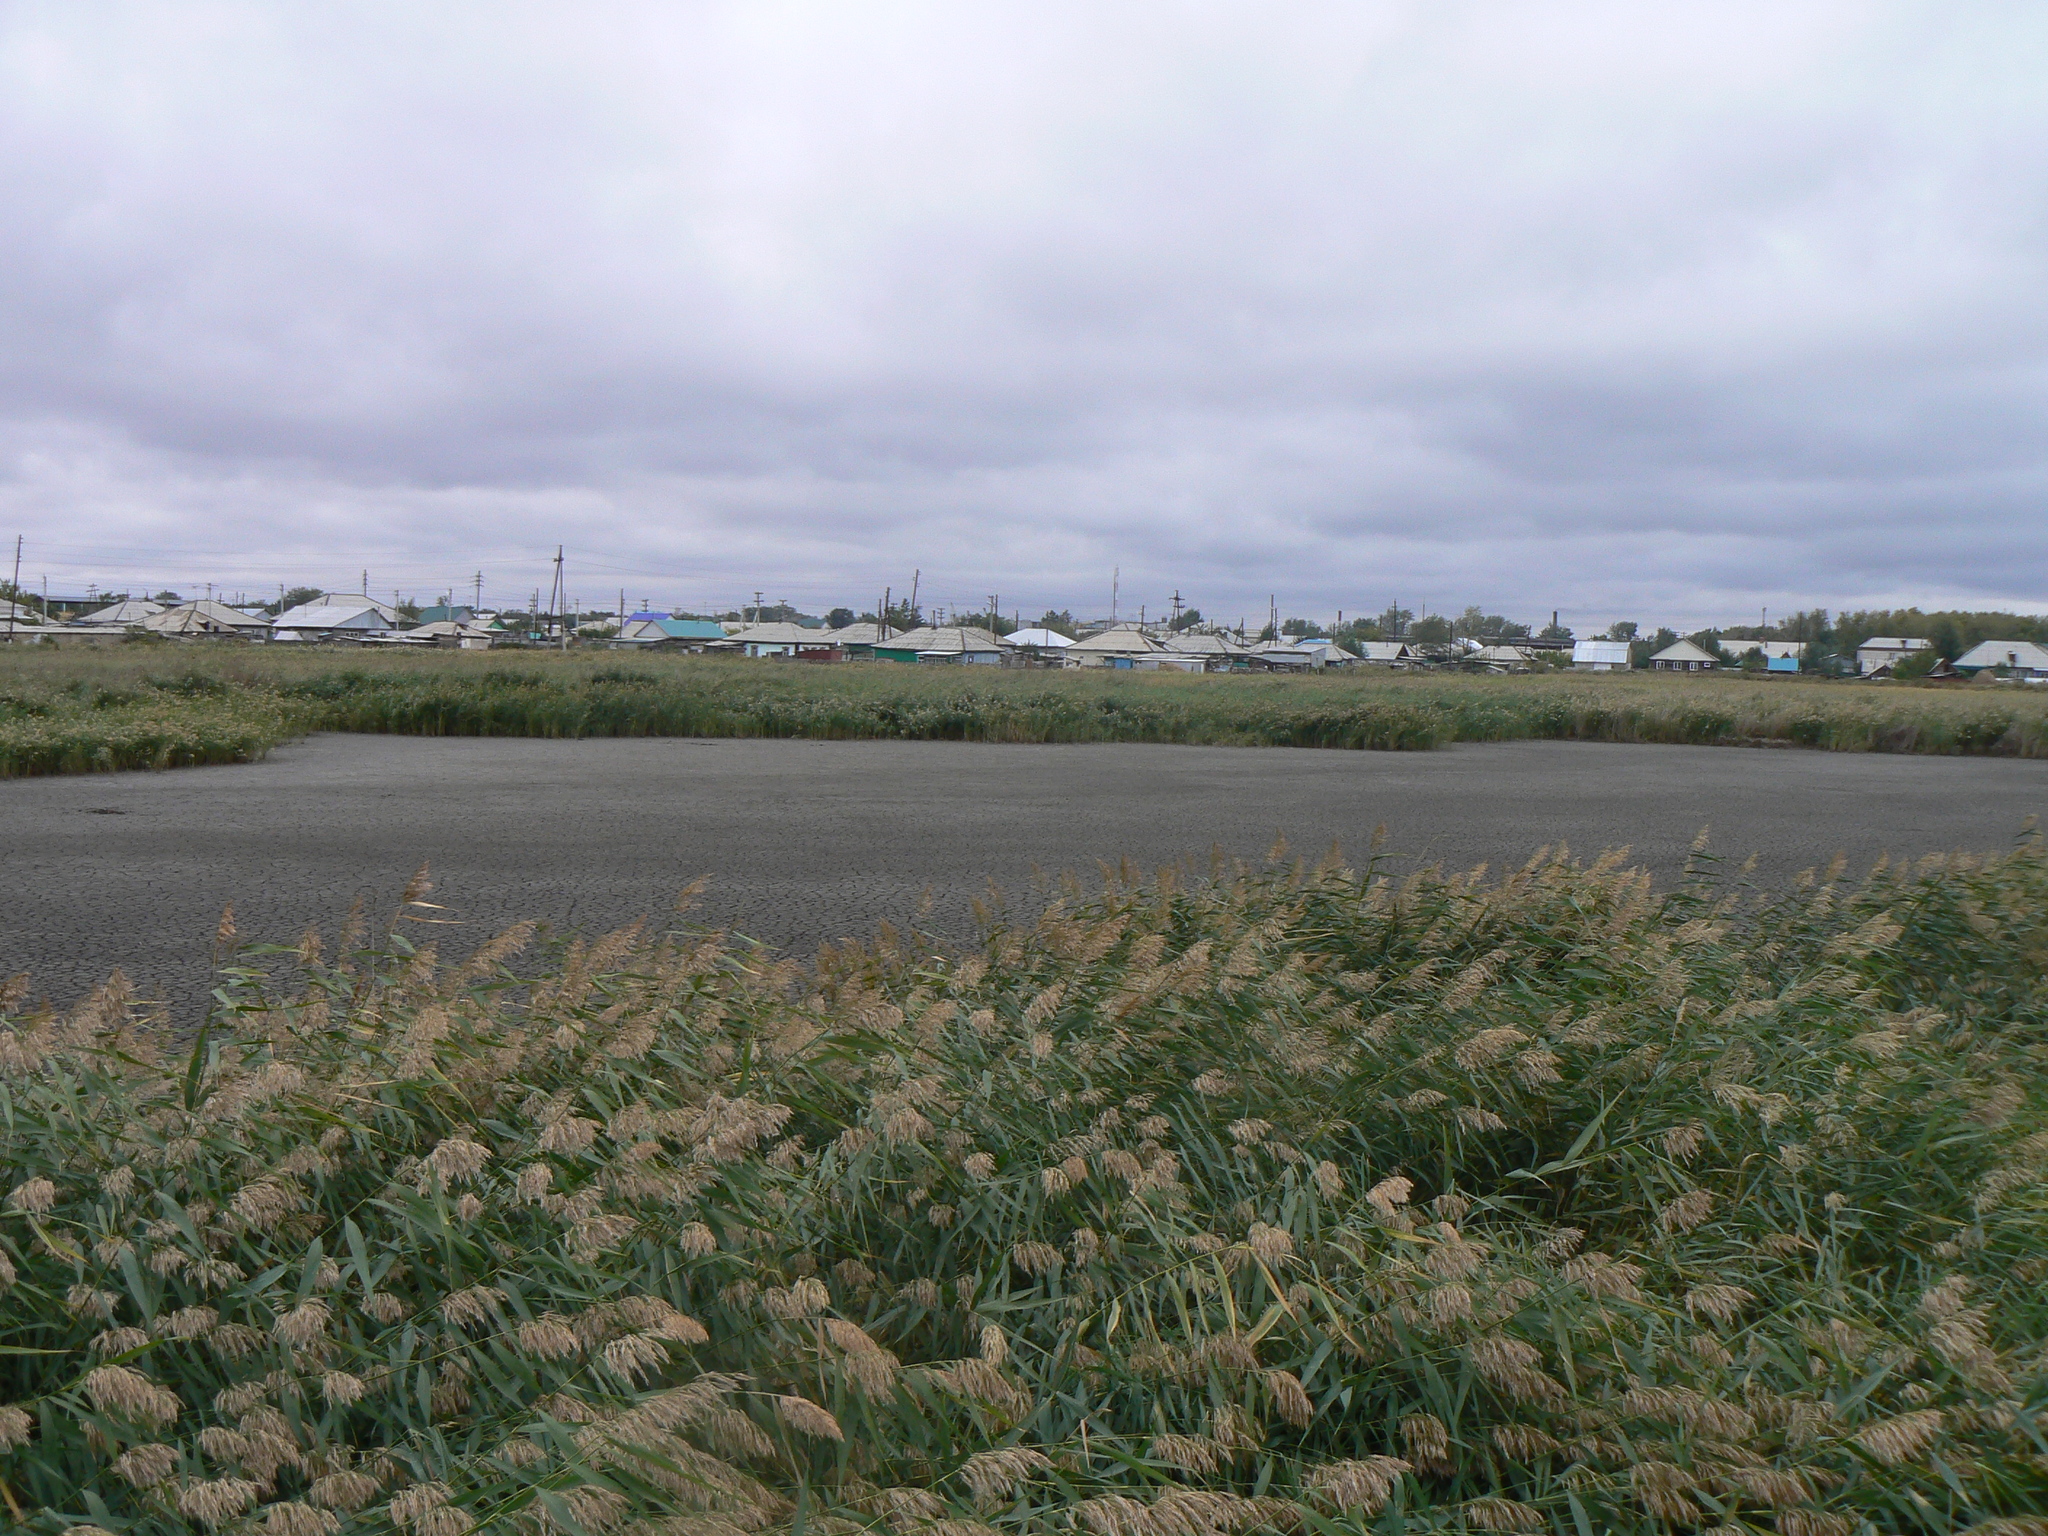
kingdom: Plantae
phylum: Tracheophyta
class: Liliopsida
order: Poales
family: Poaceae
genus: Phragmites
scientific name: Phragmites australis
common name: Common reed
